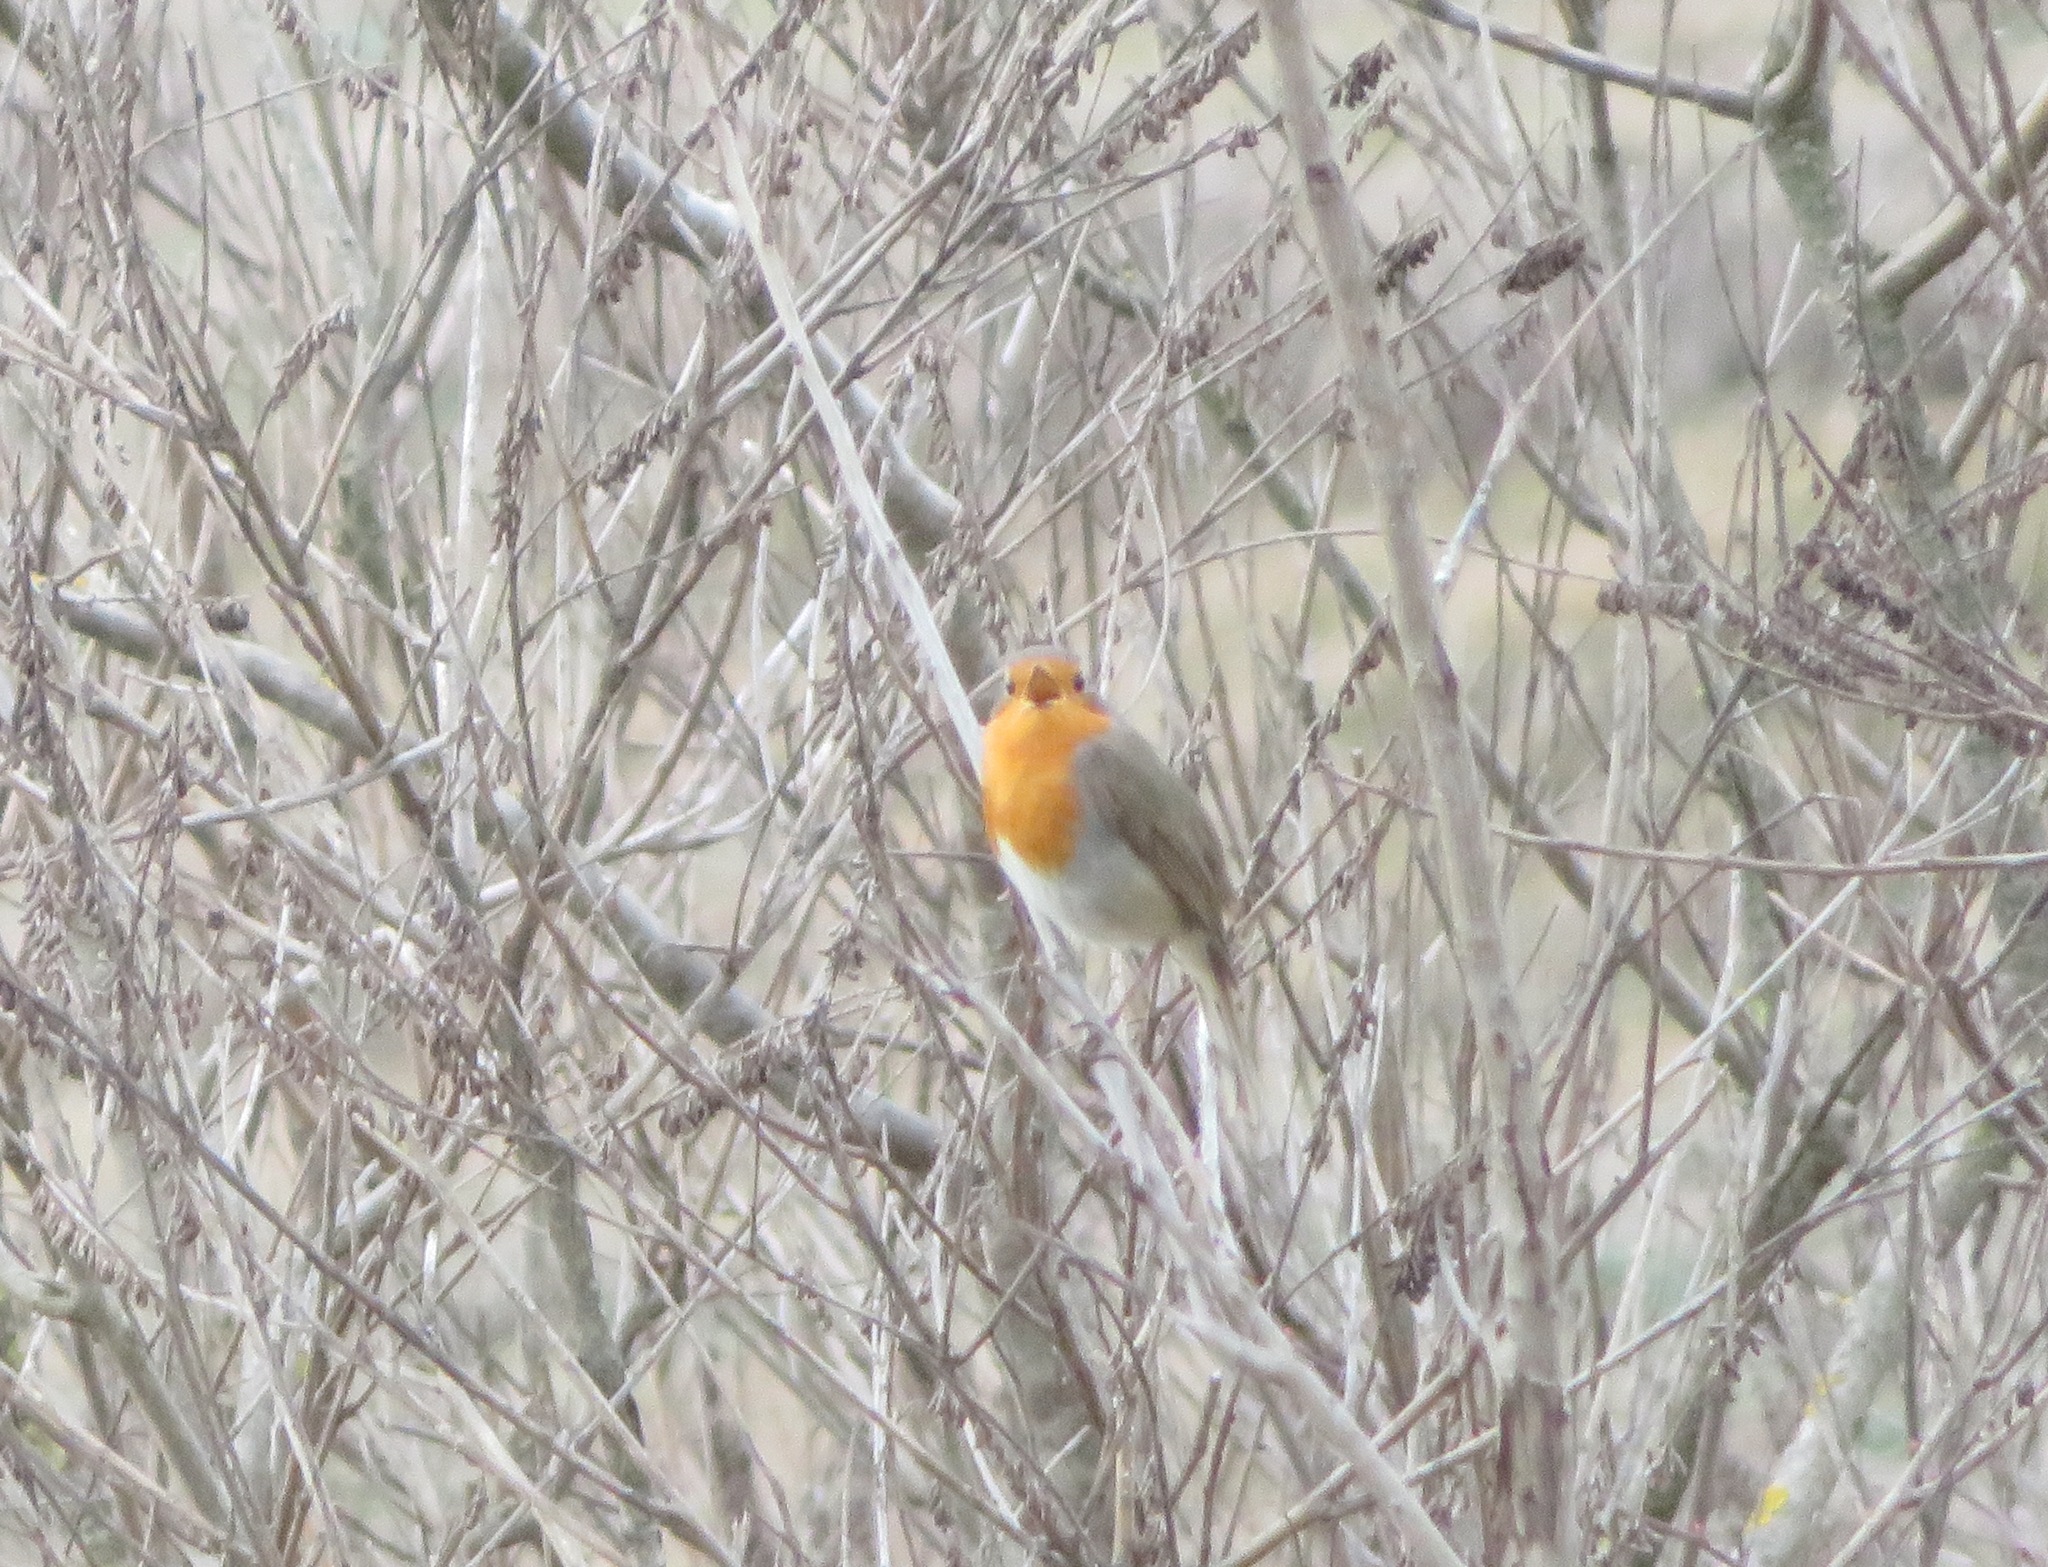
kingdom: Animalia
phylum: Chordata
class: Aves
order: Passeriformes
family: Muscicapidae
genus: Erithacus
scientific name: Erithacus rubecula
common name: European robin
